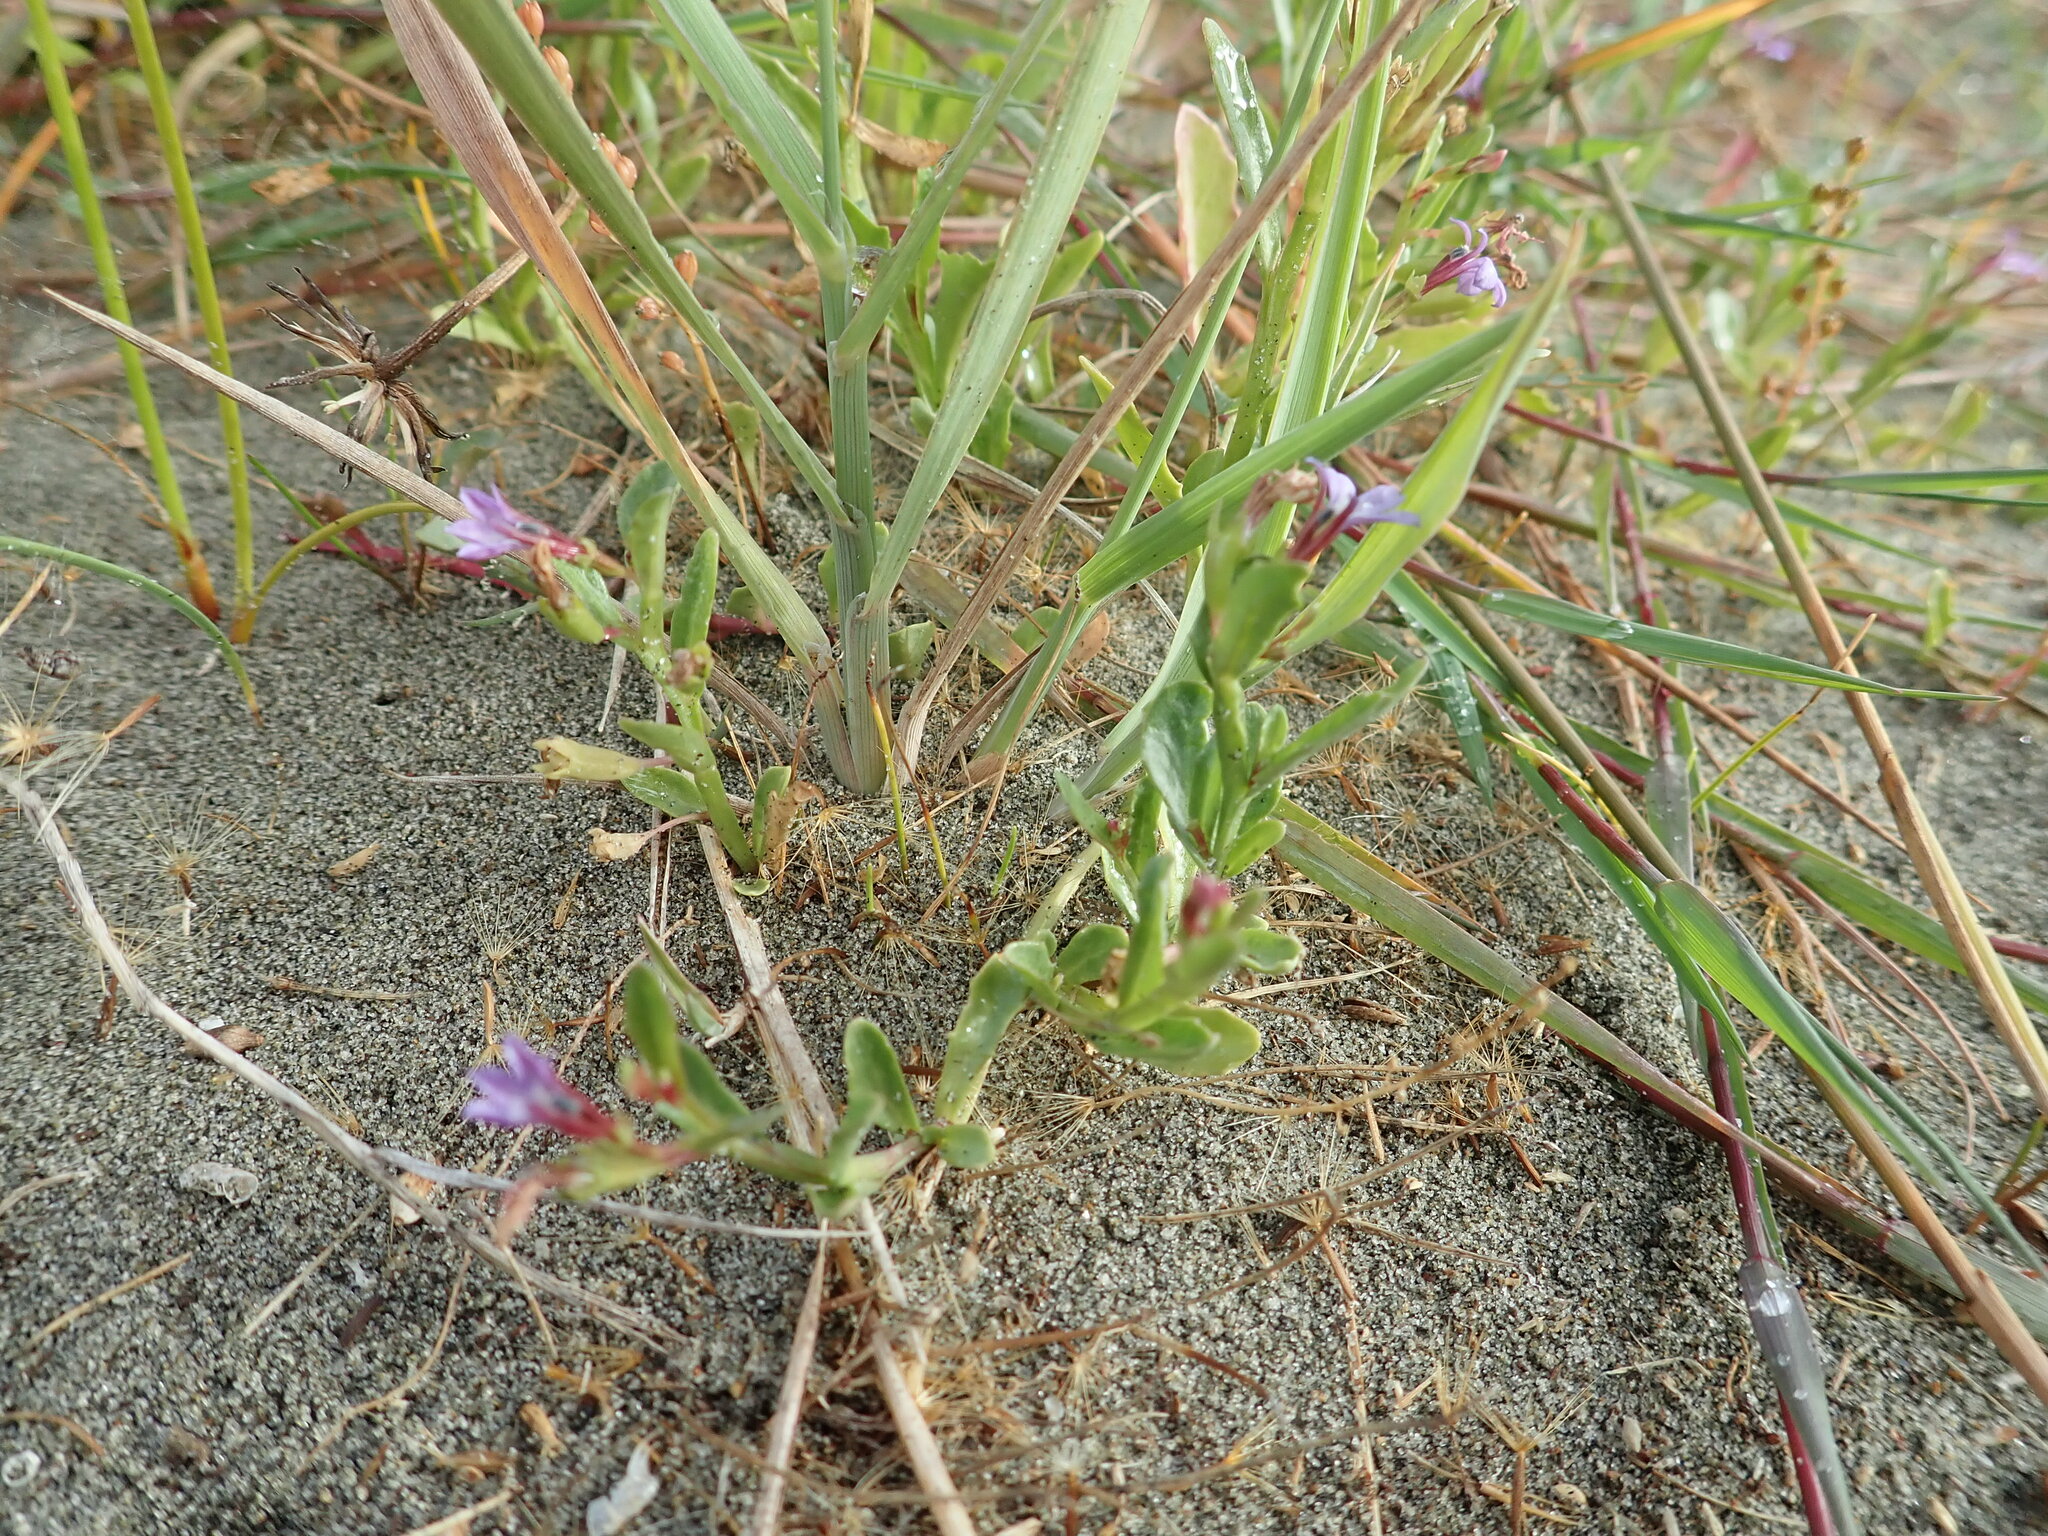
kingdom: Plantae
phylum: Tracheophyta
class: Magnoliopsida
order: Asterales
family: Campanulaceae
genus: Lobelia
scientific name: Lobelia anceps
